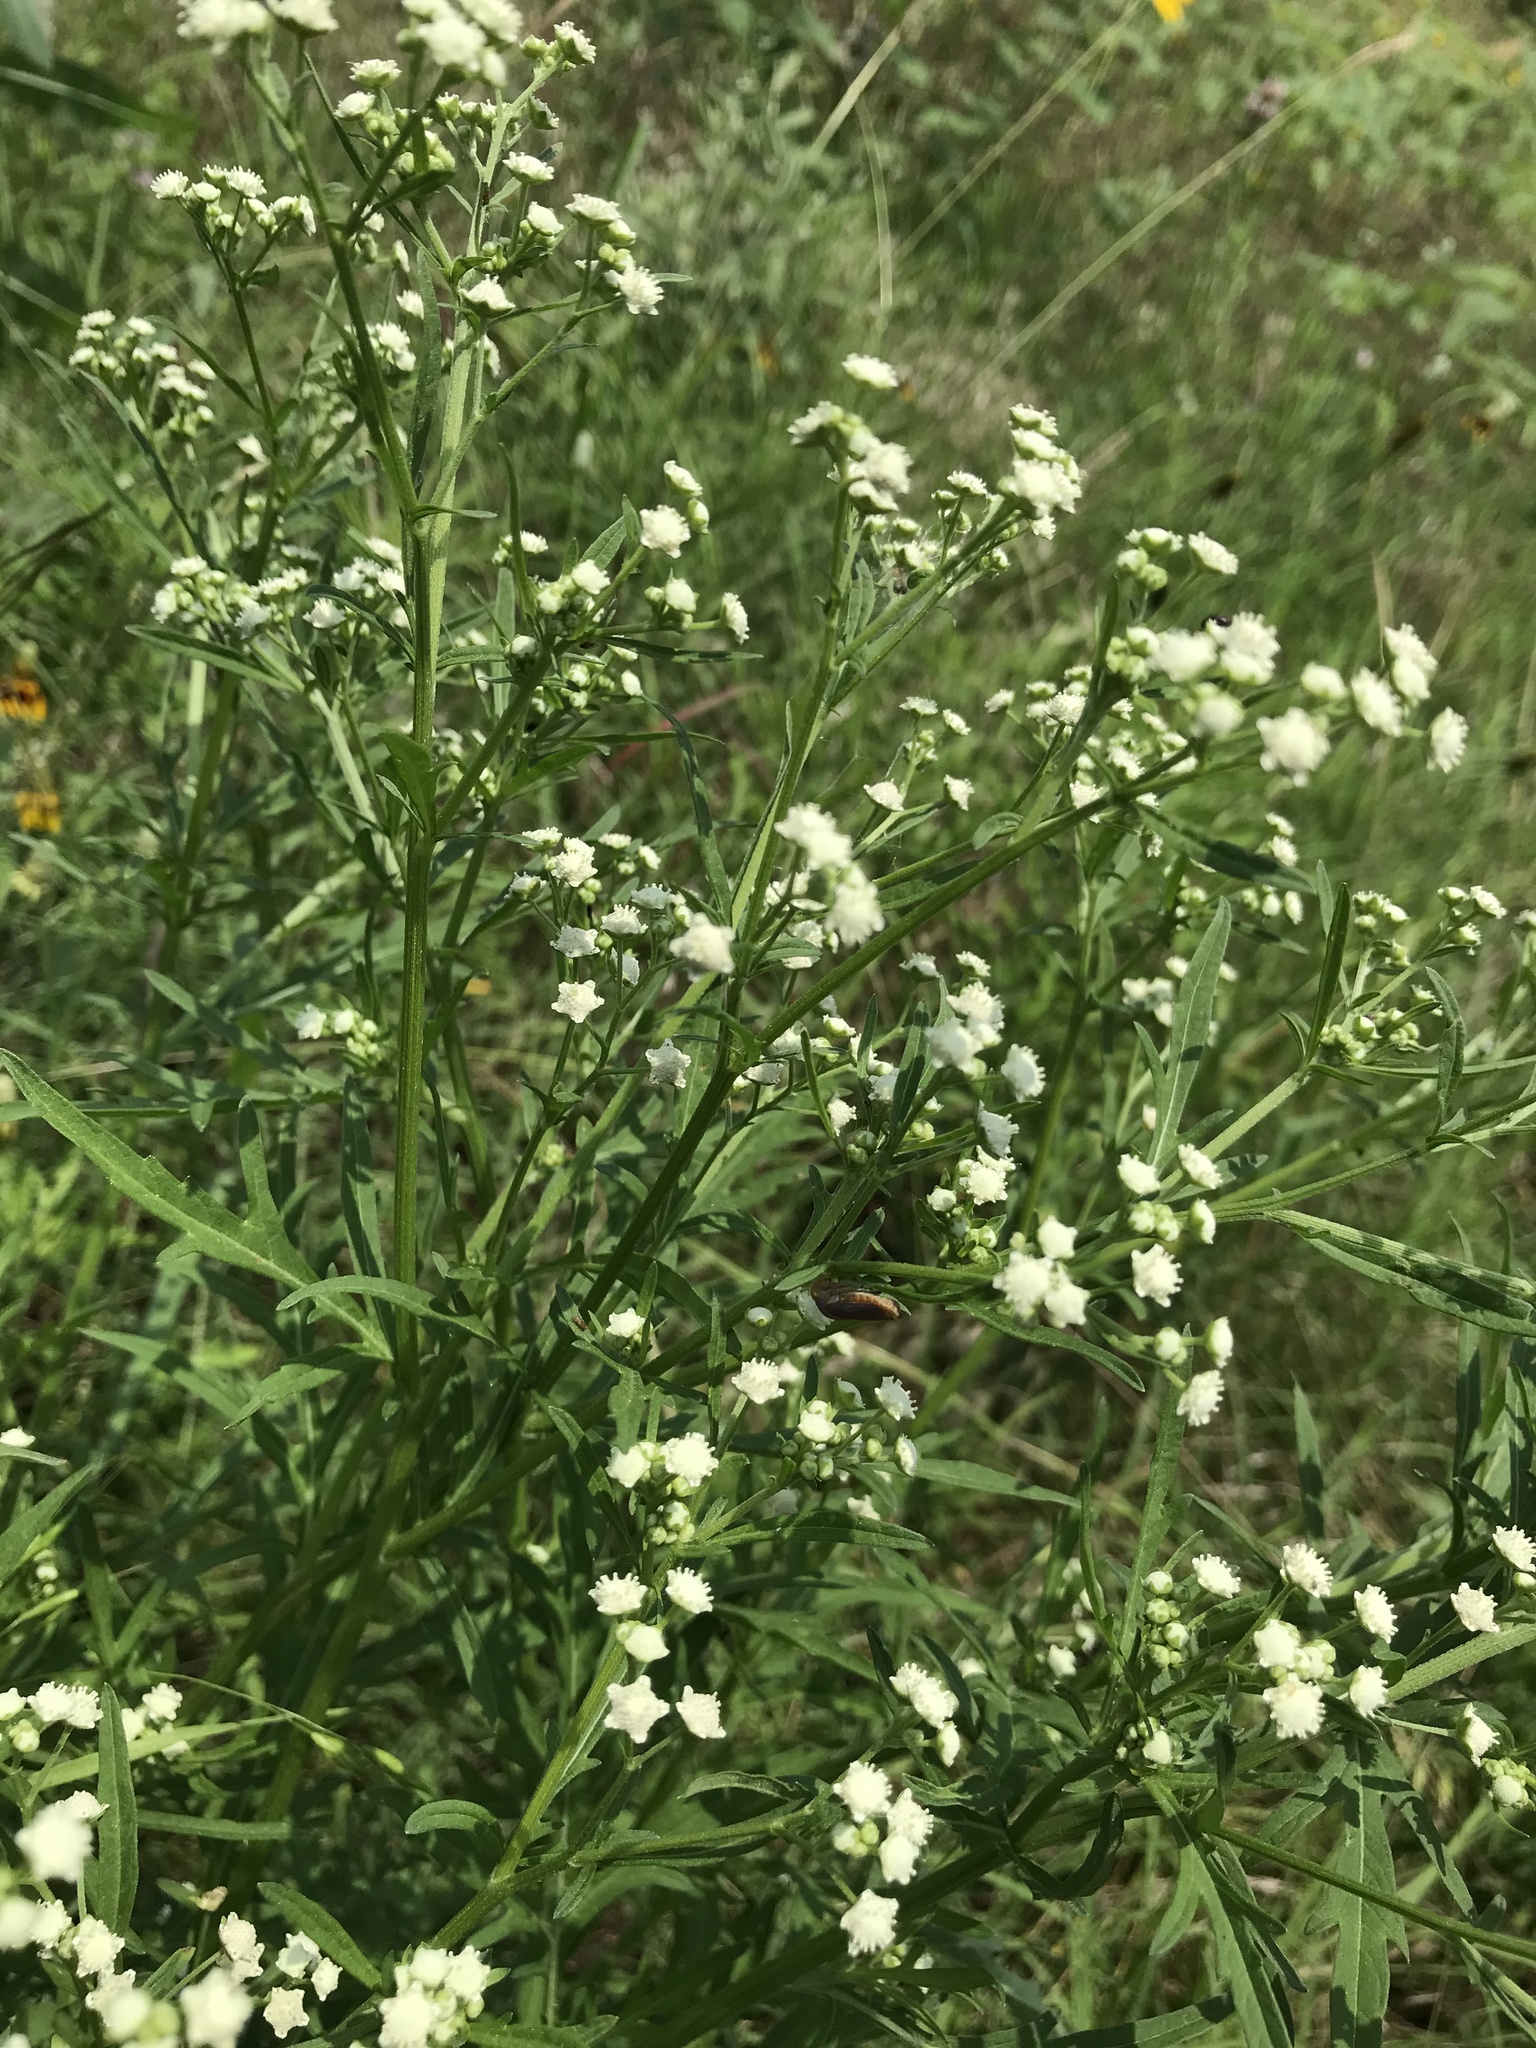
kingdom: Plantae
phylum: Tracheophyta
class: Magnoliopsida
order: Asterales
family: Asteraceae
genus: Parthenium
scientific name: Parthenium hysterophorus
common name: Santa maria feverfew
